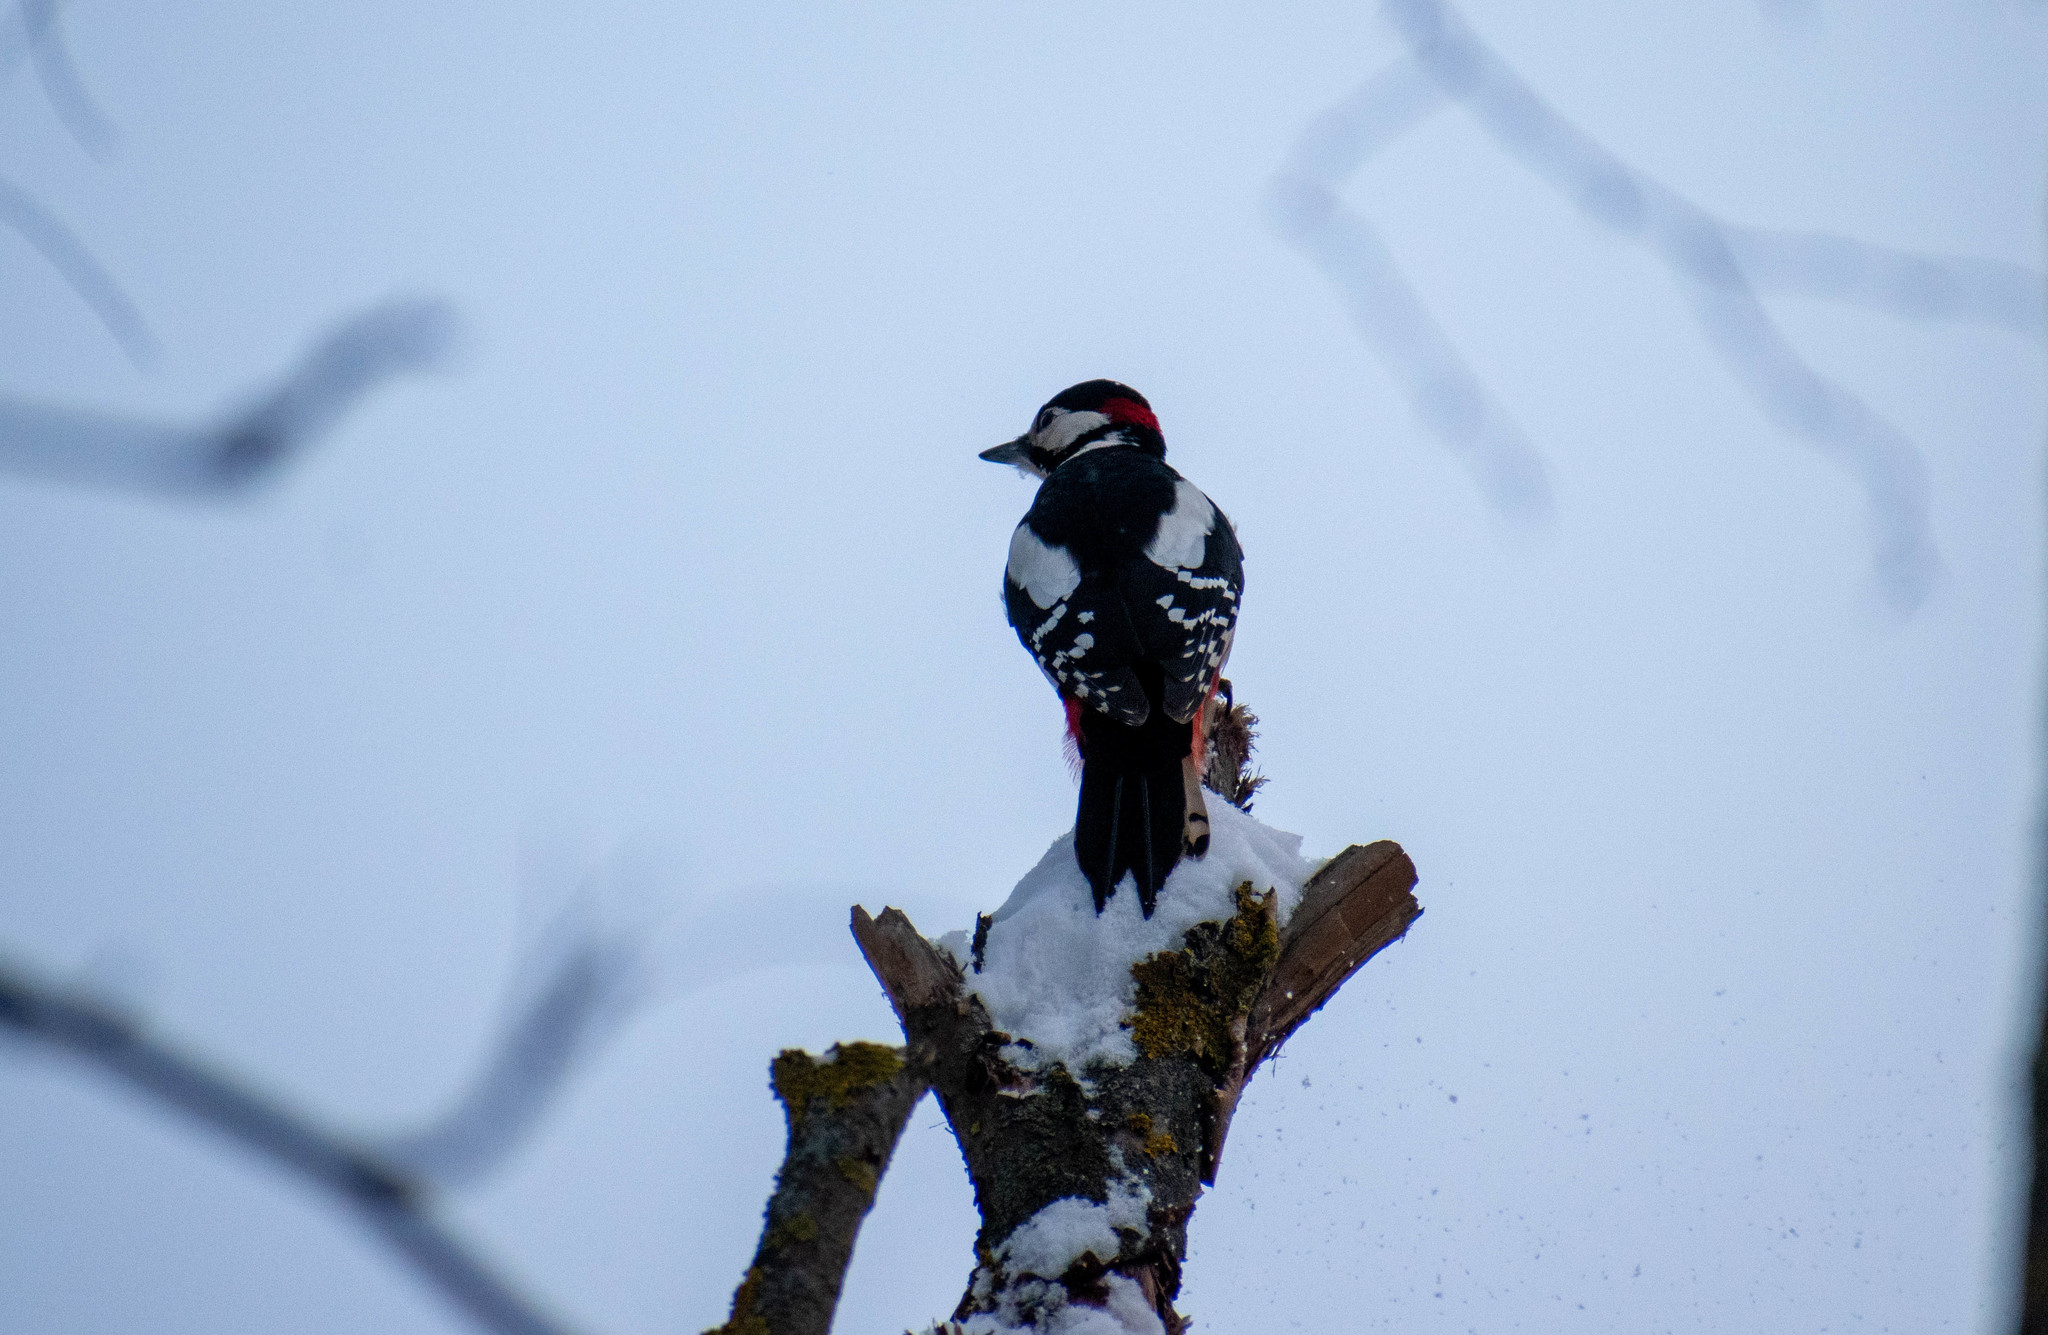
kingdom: Animalia
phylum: Chordata
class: Aves
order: Piciformes
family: Picidae
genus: Dendrocopos
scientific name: Dendrocopos major
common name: Great spotted woodpecker
